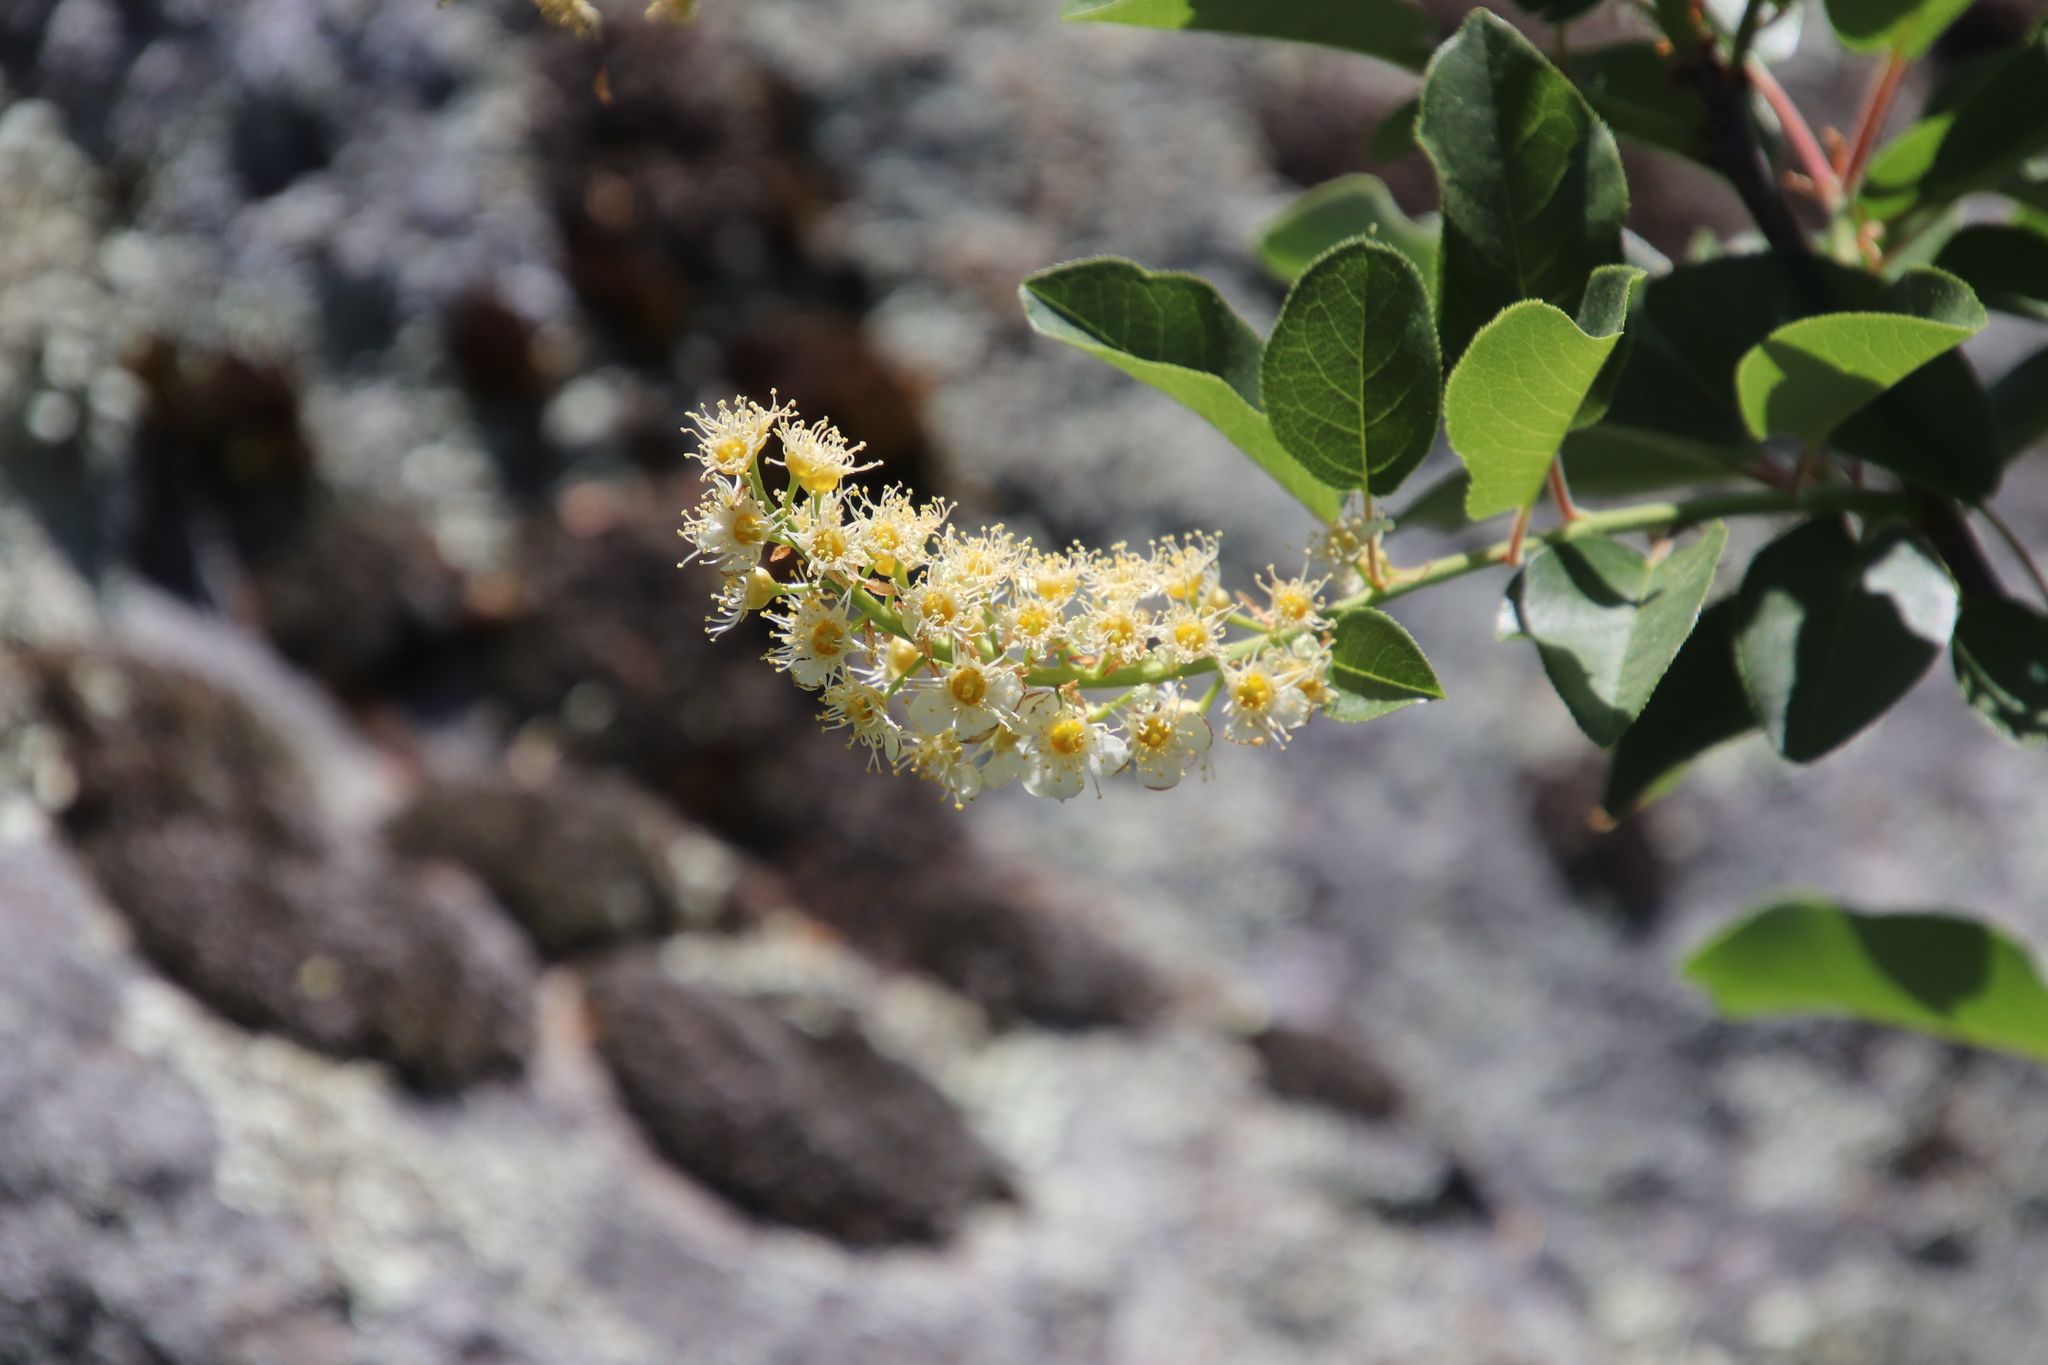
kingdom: Plantae
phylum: Tracheophyta
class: Magnoliopsida
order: Rosales
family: Rosaceae
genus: Prunus
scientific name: Prunus virginiana
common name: Chokecherry
